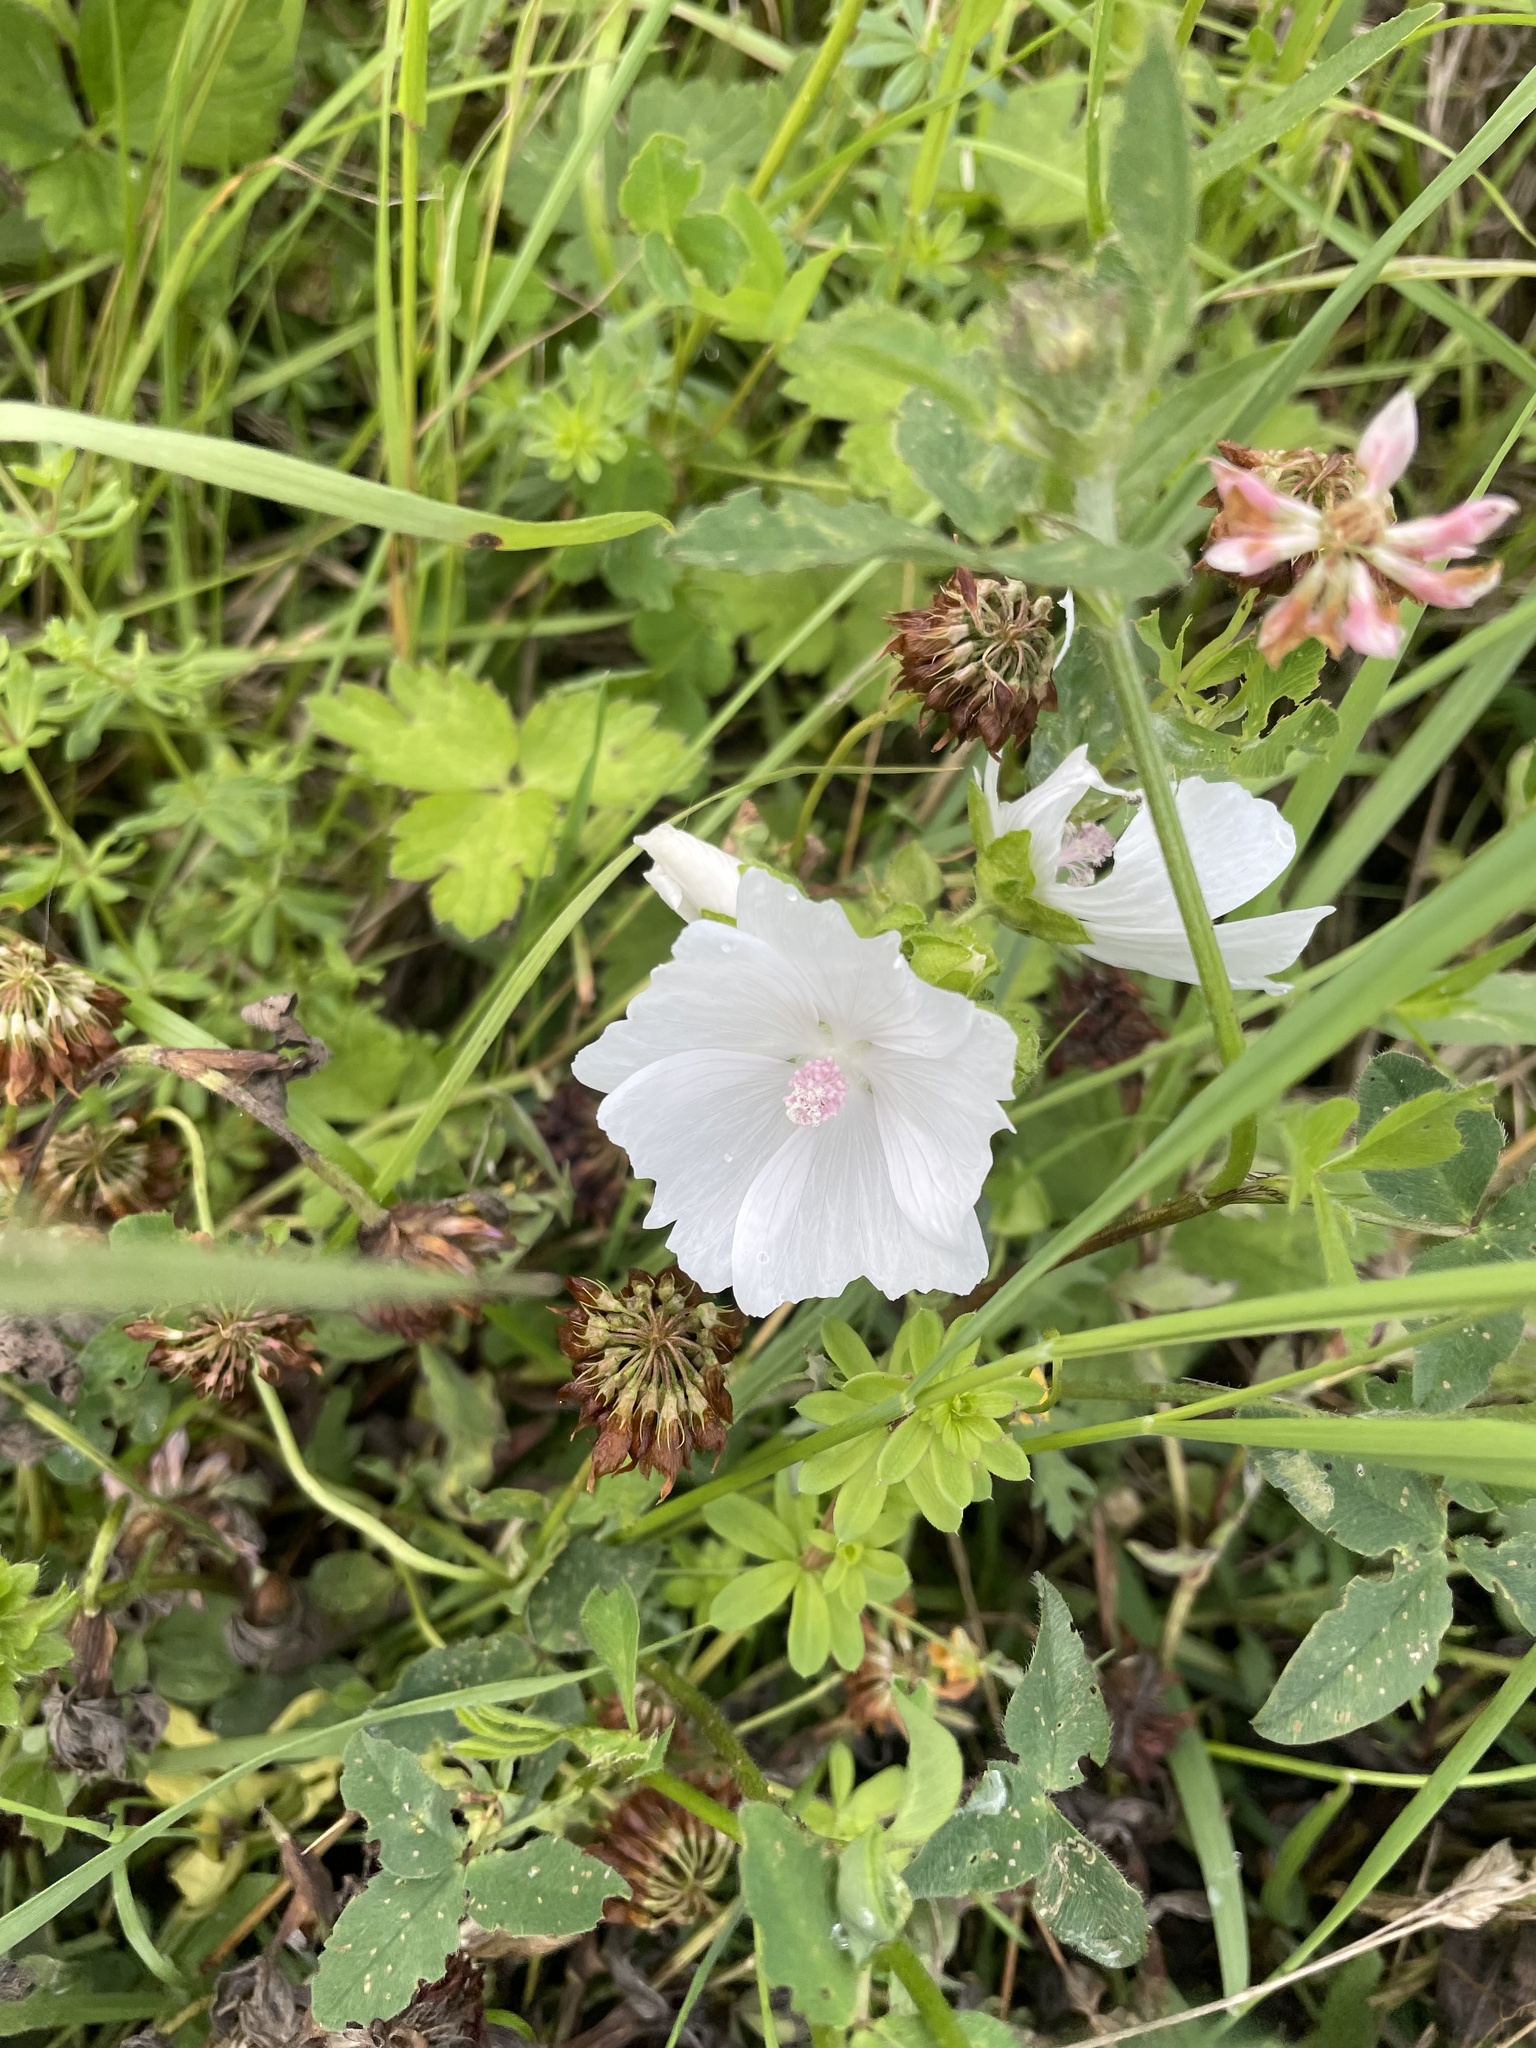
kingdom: Plantae
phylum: Tracheophyta
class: Magnoliopsida
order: Malvales
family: Malvaceae
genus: Malva
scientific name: Malva moschata
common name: Musk mallow
